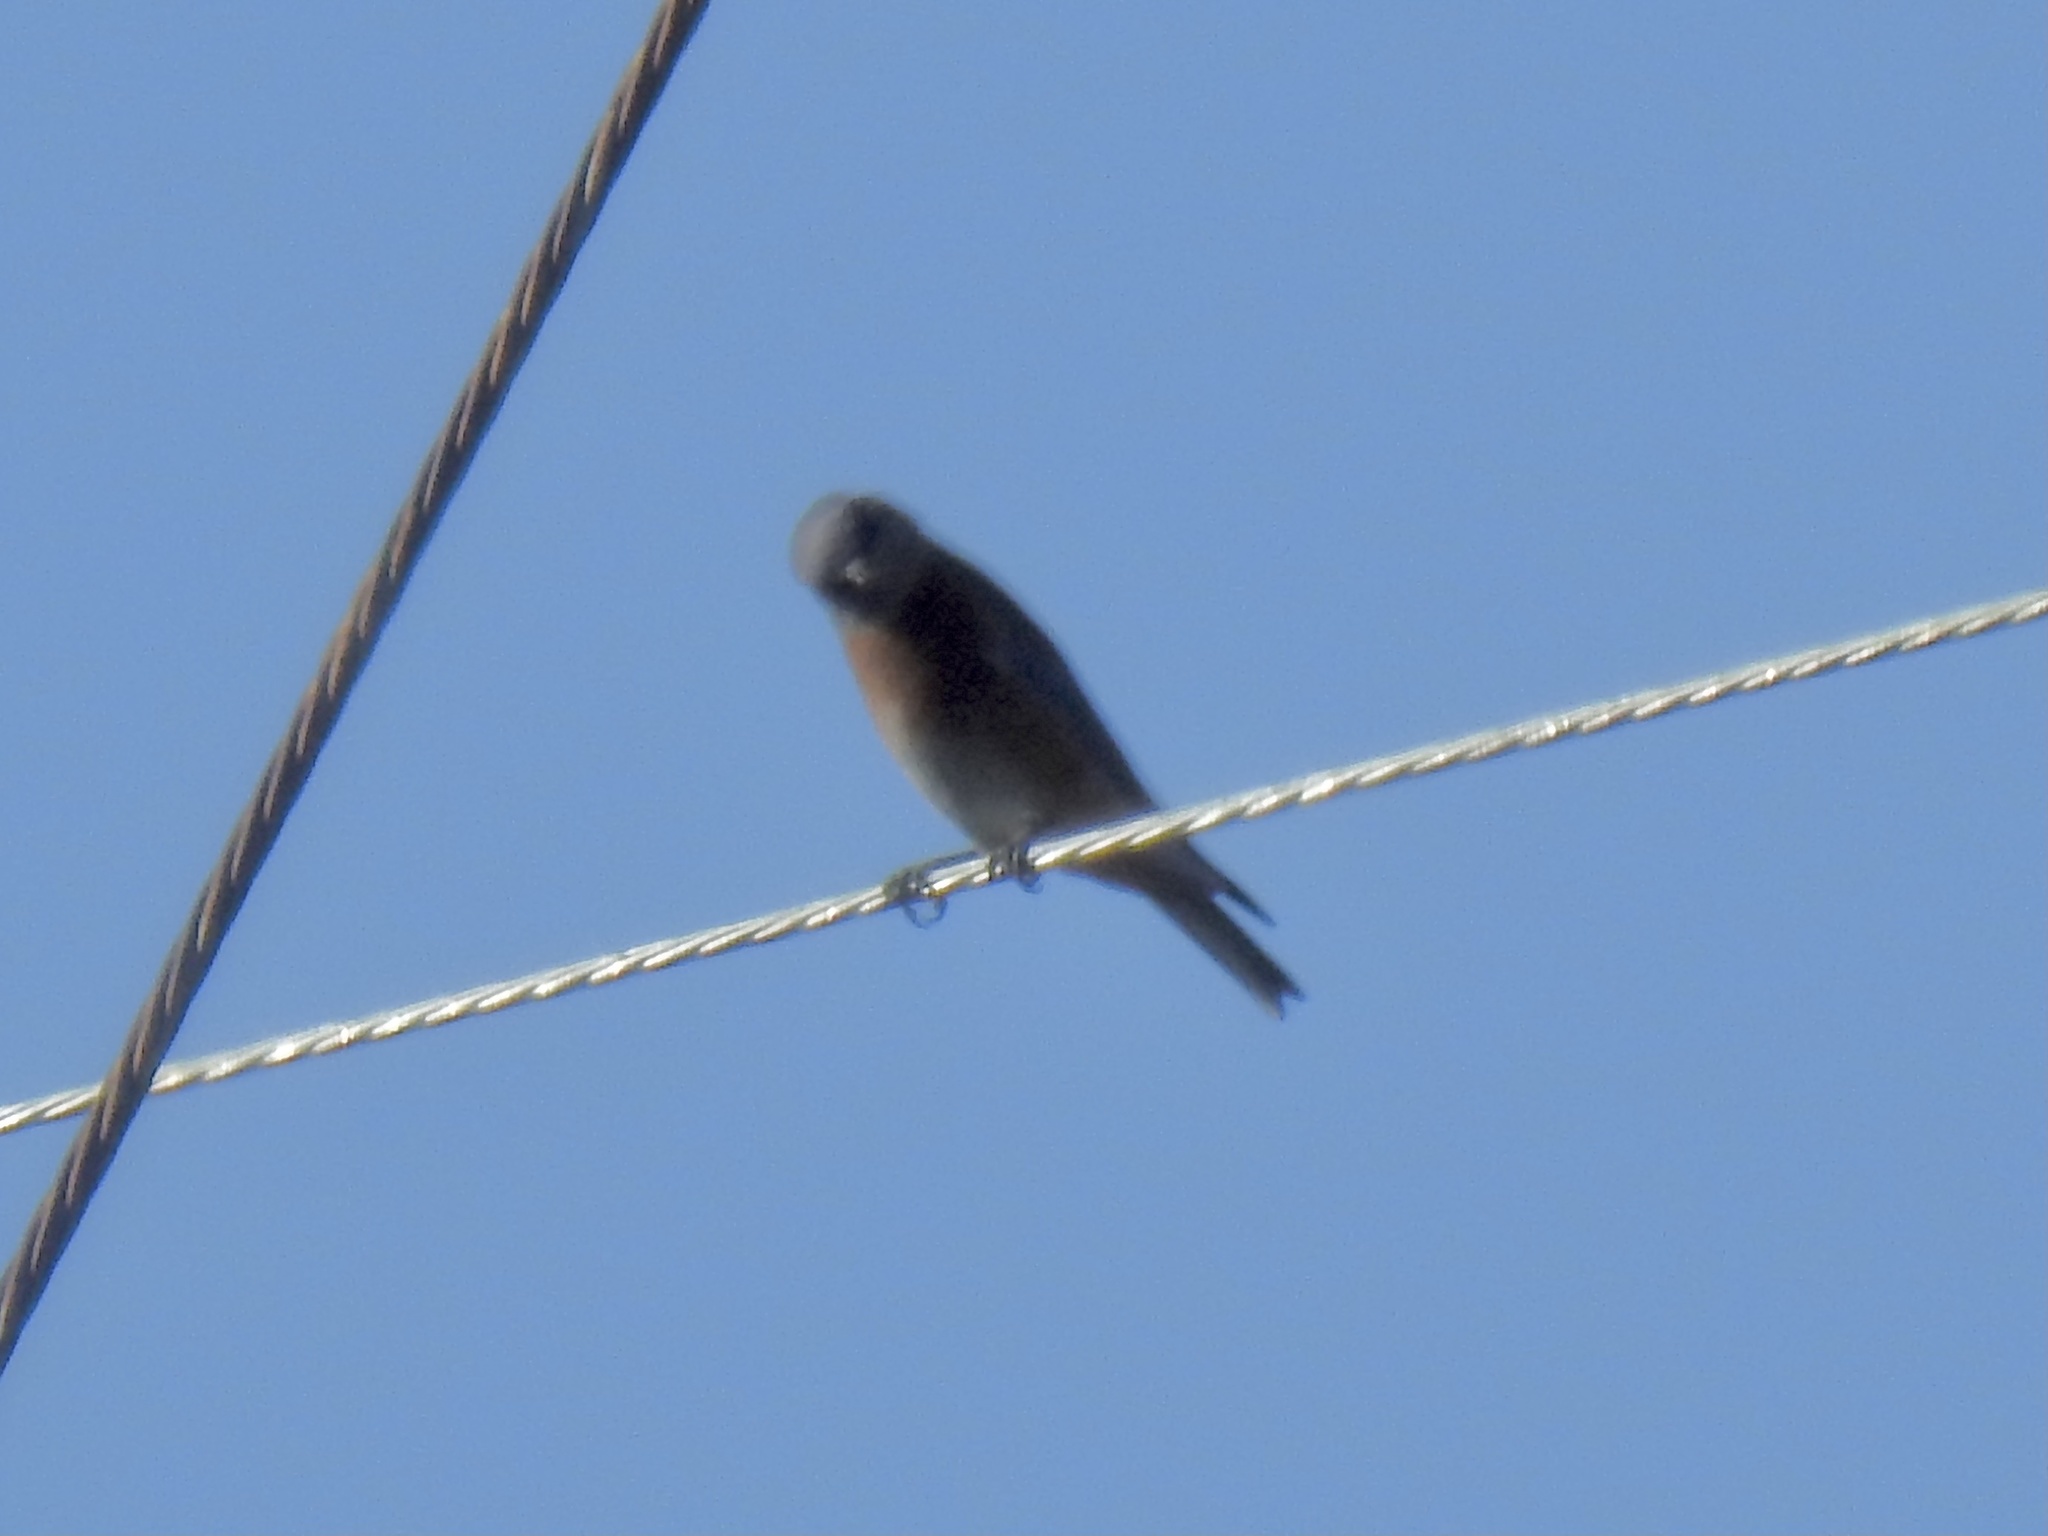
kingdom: Animalia
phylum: Chordata
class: Aves
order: Passeriformes
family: Turdidae
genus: Sialia
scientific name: Sialia sialis
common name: Eastern bluebird
